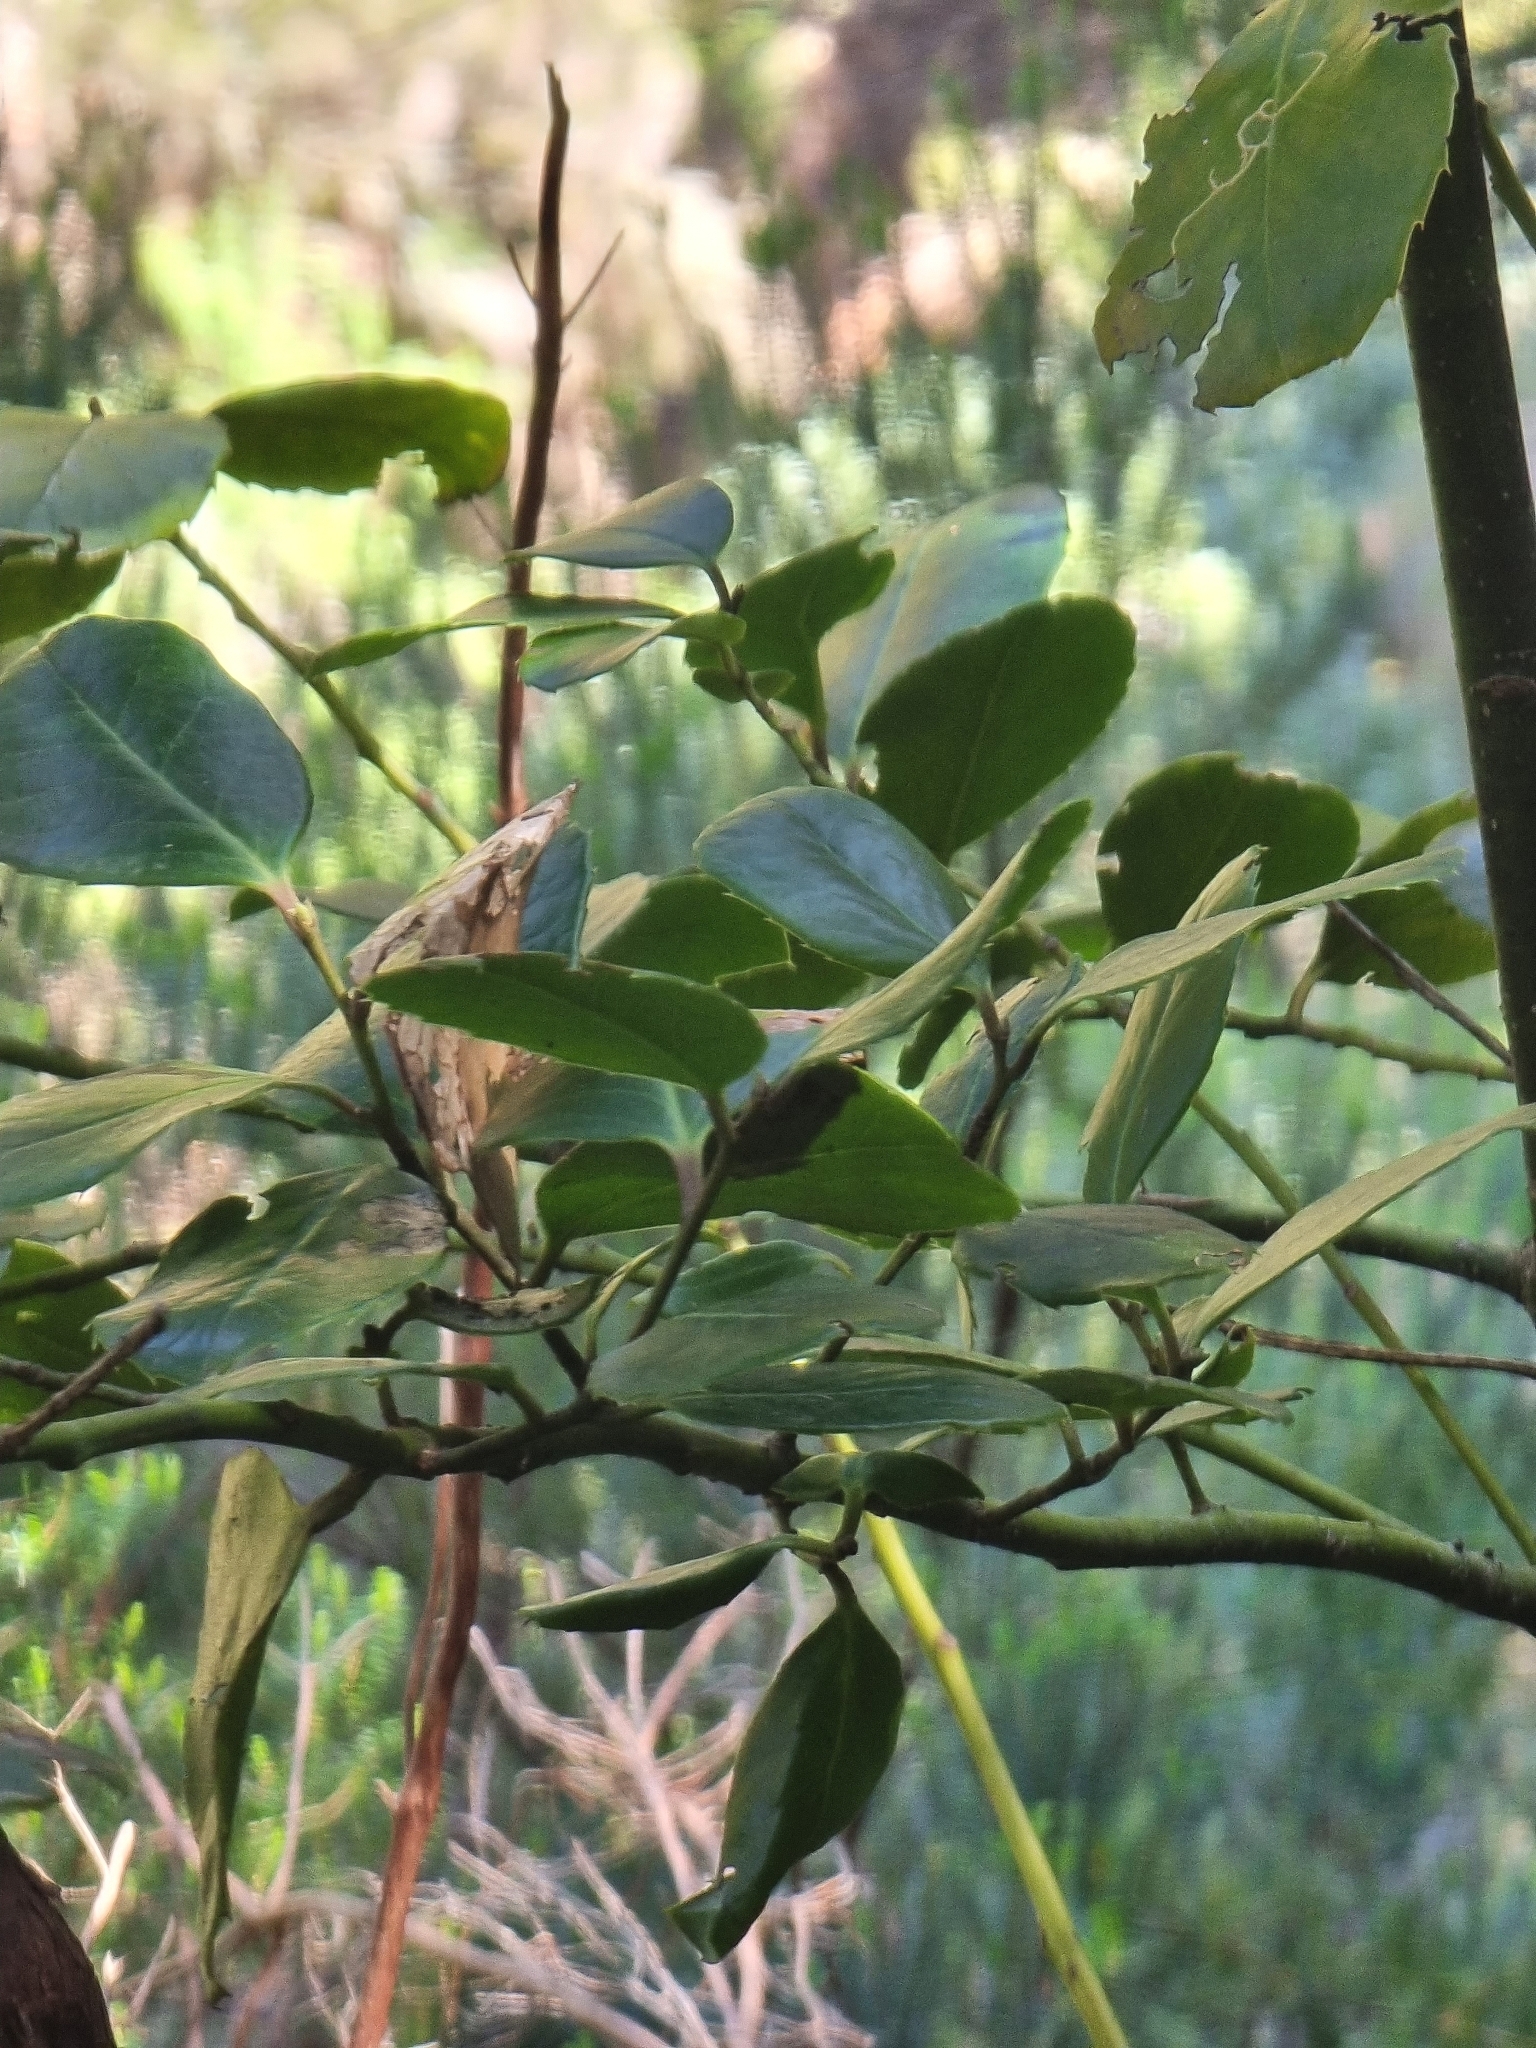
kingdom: Plantae
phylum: Tracheophyta
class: Magnoliopsida
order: Aquifoliales
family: Aquifoliaceae
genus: Ilex
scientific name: Ilex perado
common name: Madeira holly
